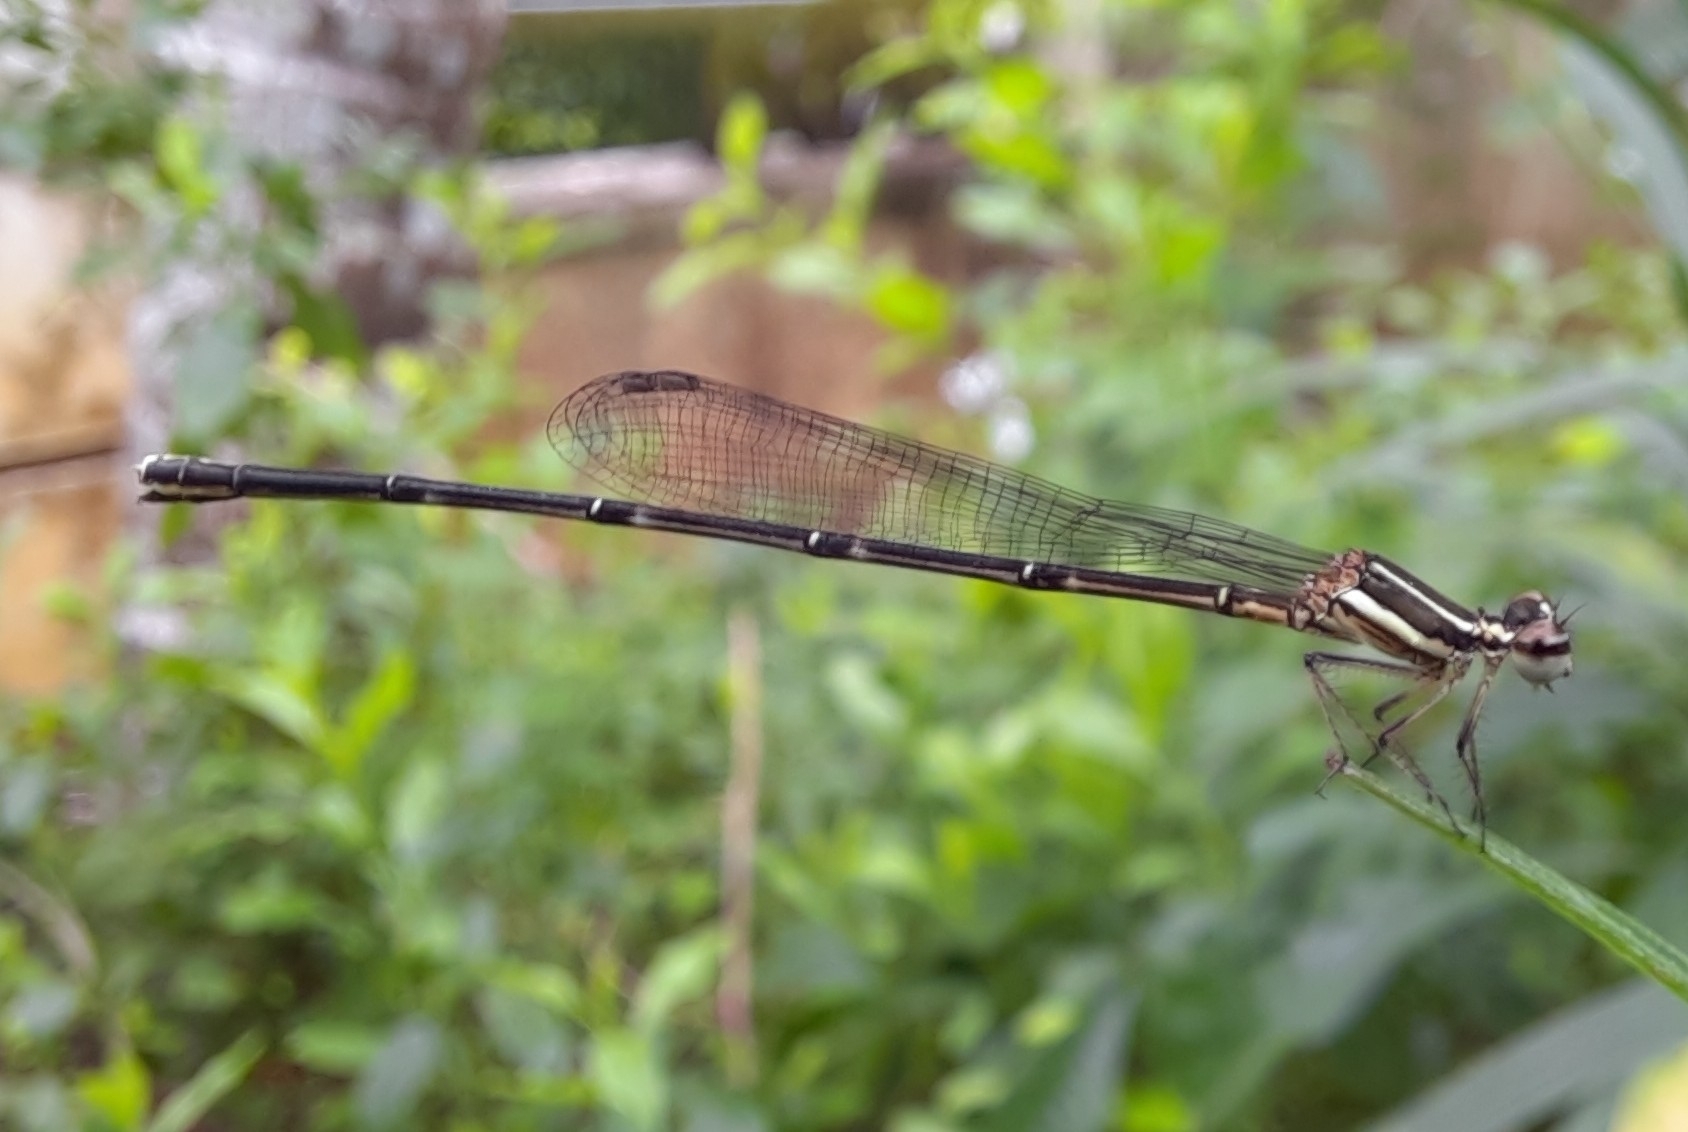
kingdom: Animalia
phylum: Arthropoda
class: Insecta
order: Odonata
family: Platycnemididae
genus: Prodasineura
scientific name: Prodasineura verticalis
